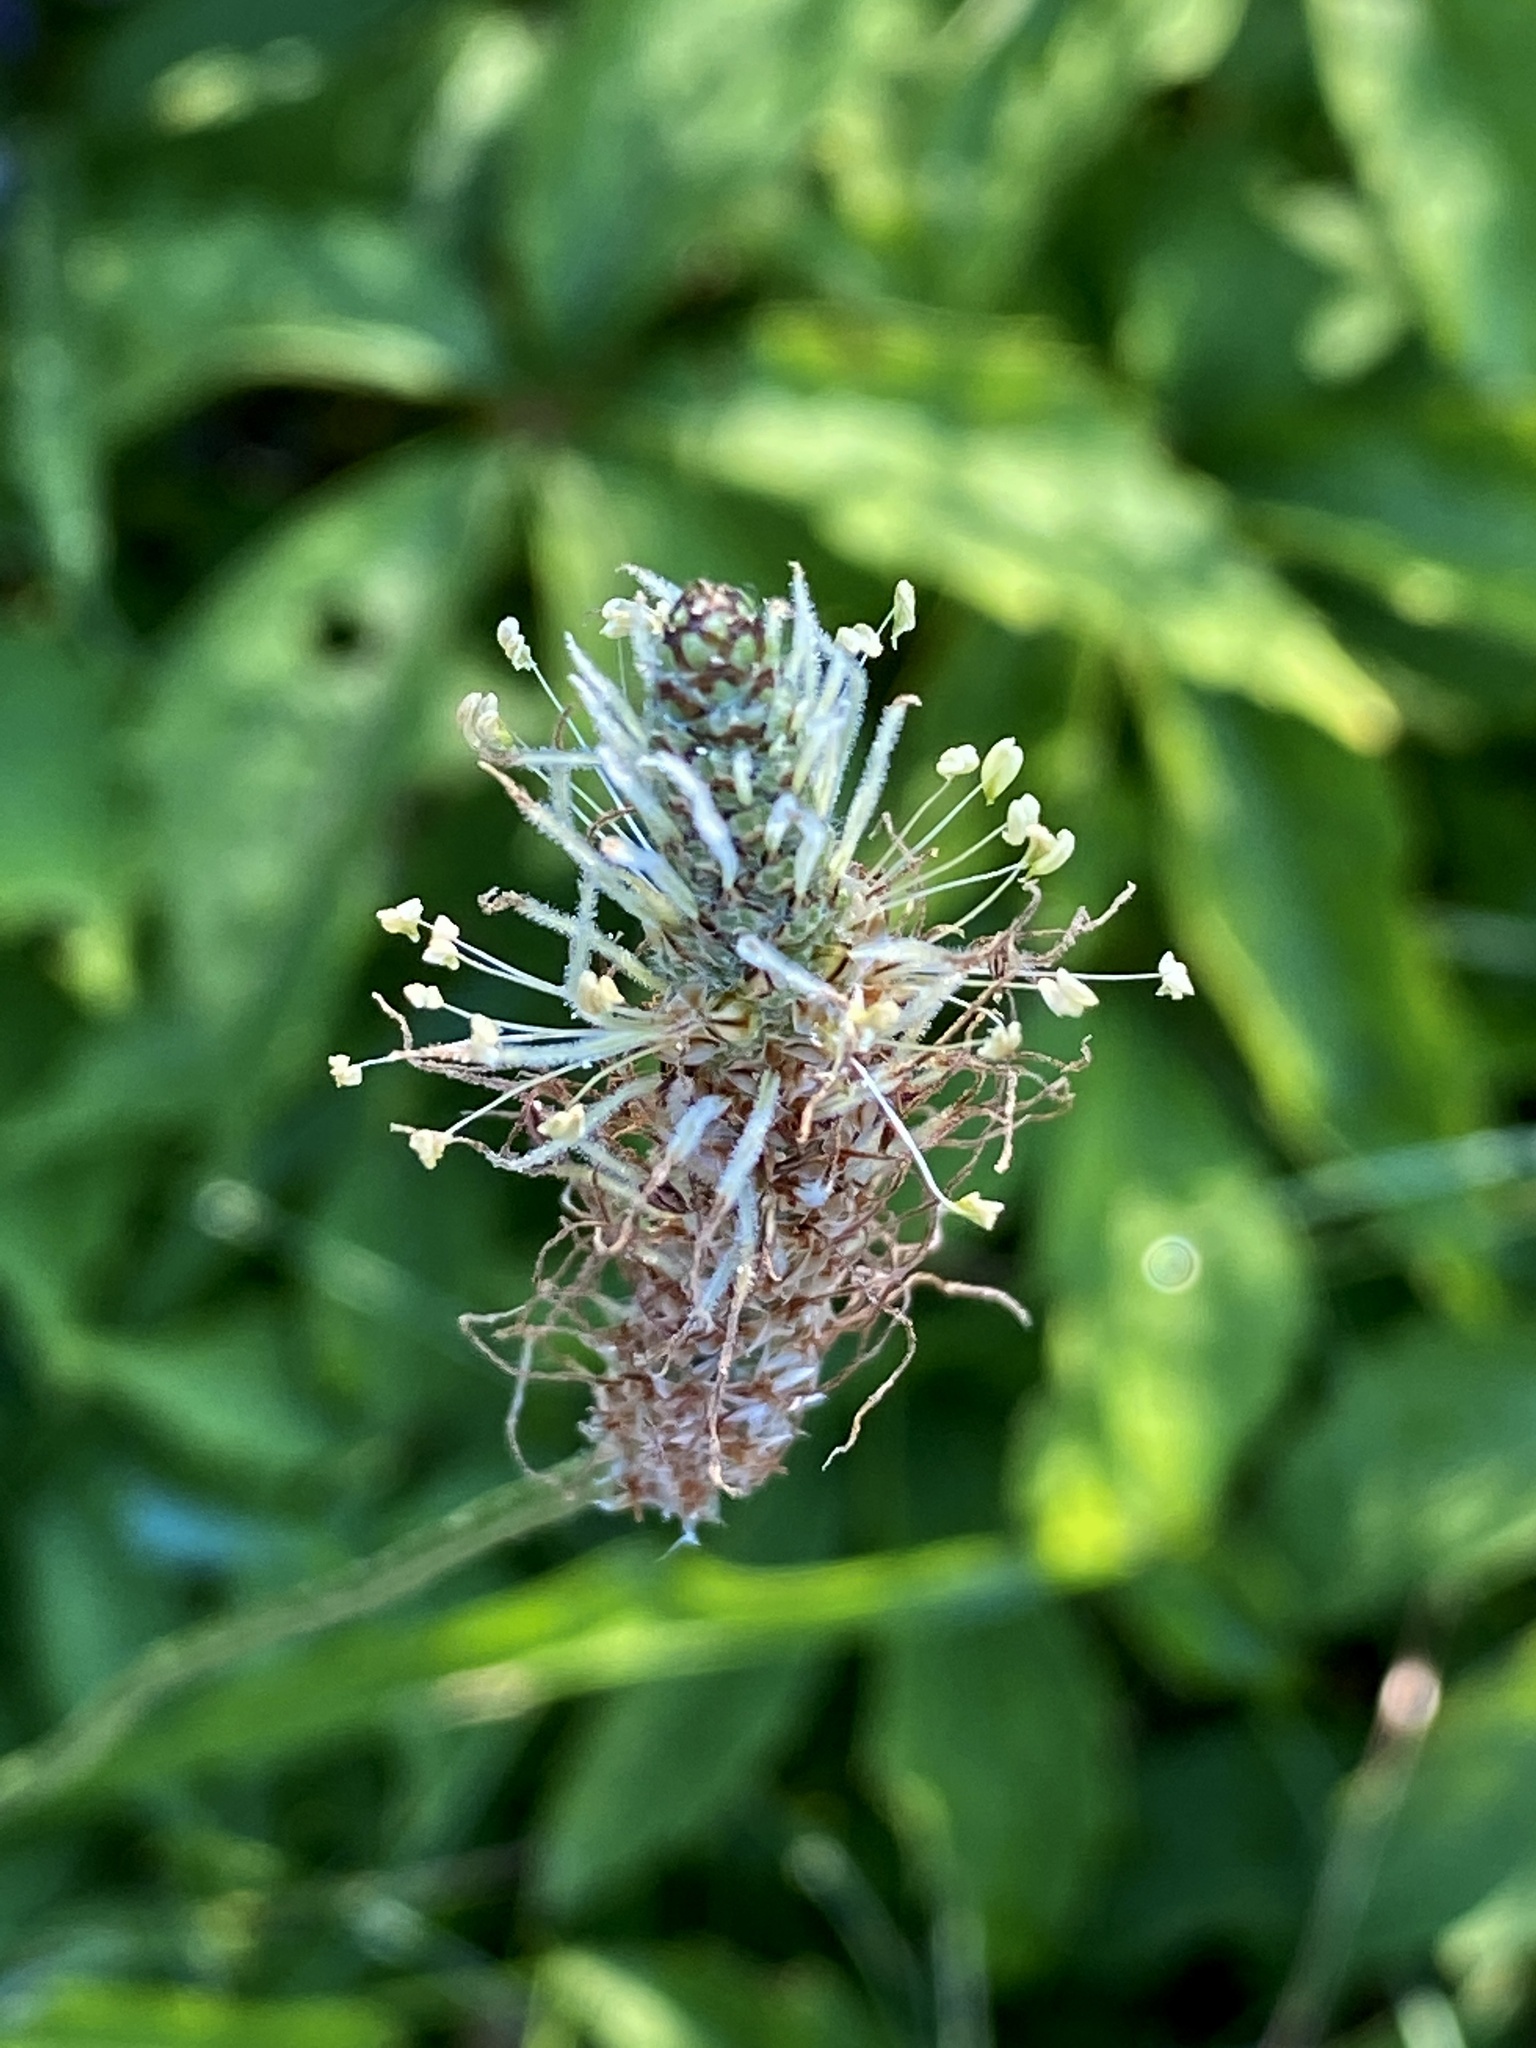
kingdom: Plantae
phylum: Tracheophyta
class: Magnoliopsida
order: Lamiales
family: Plantaginaceae
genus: Plantago
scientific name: Plantago lanceolata
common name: Ribwort plantain
